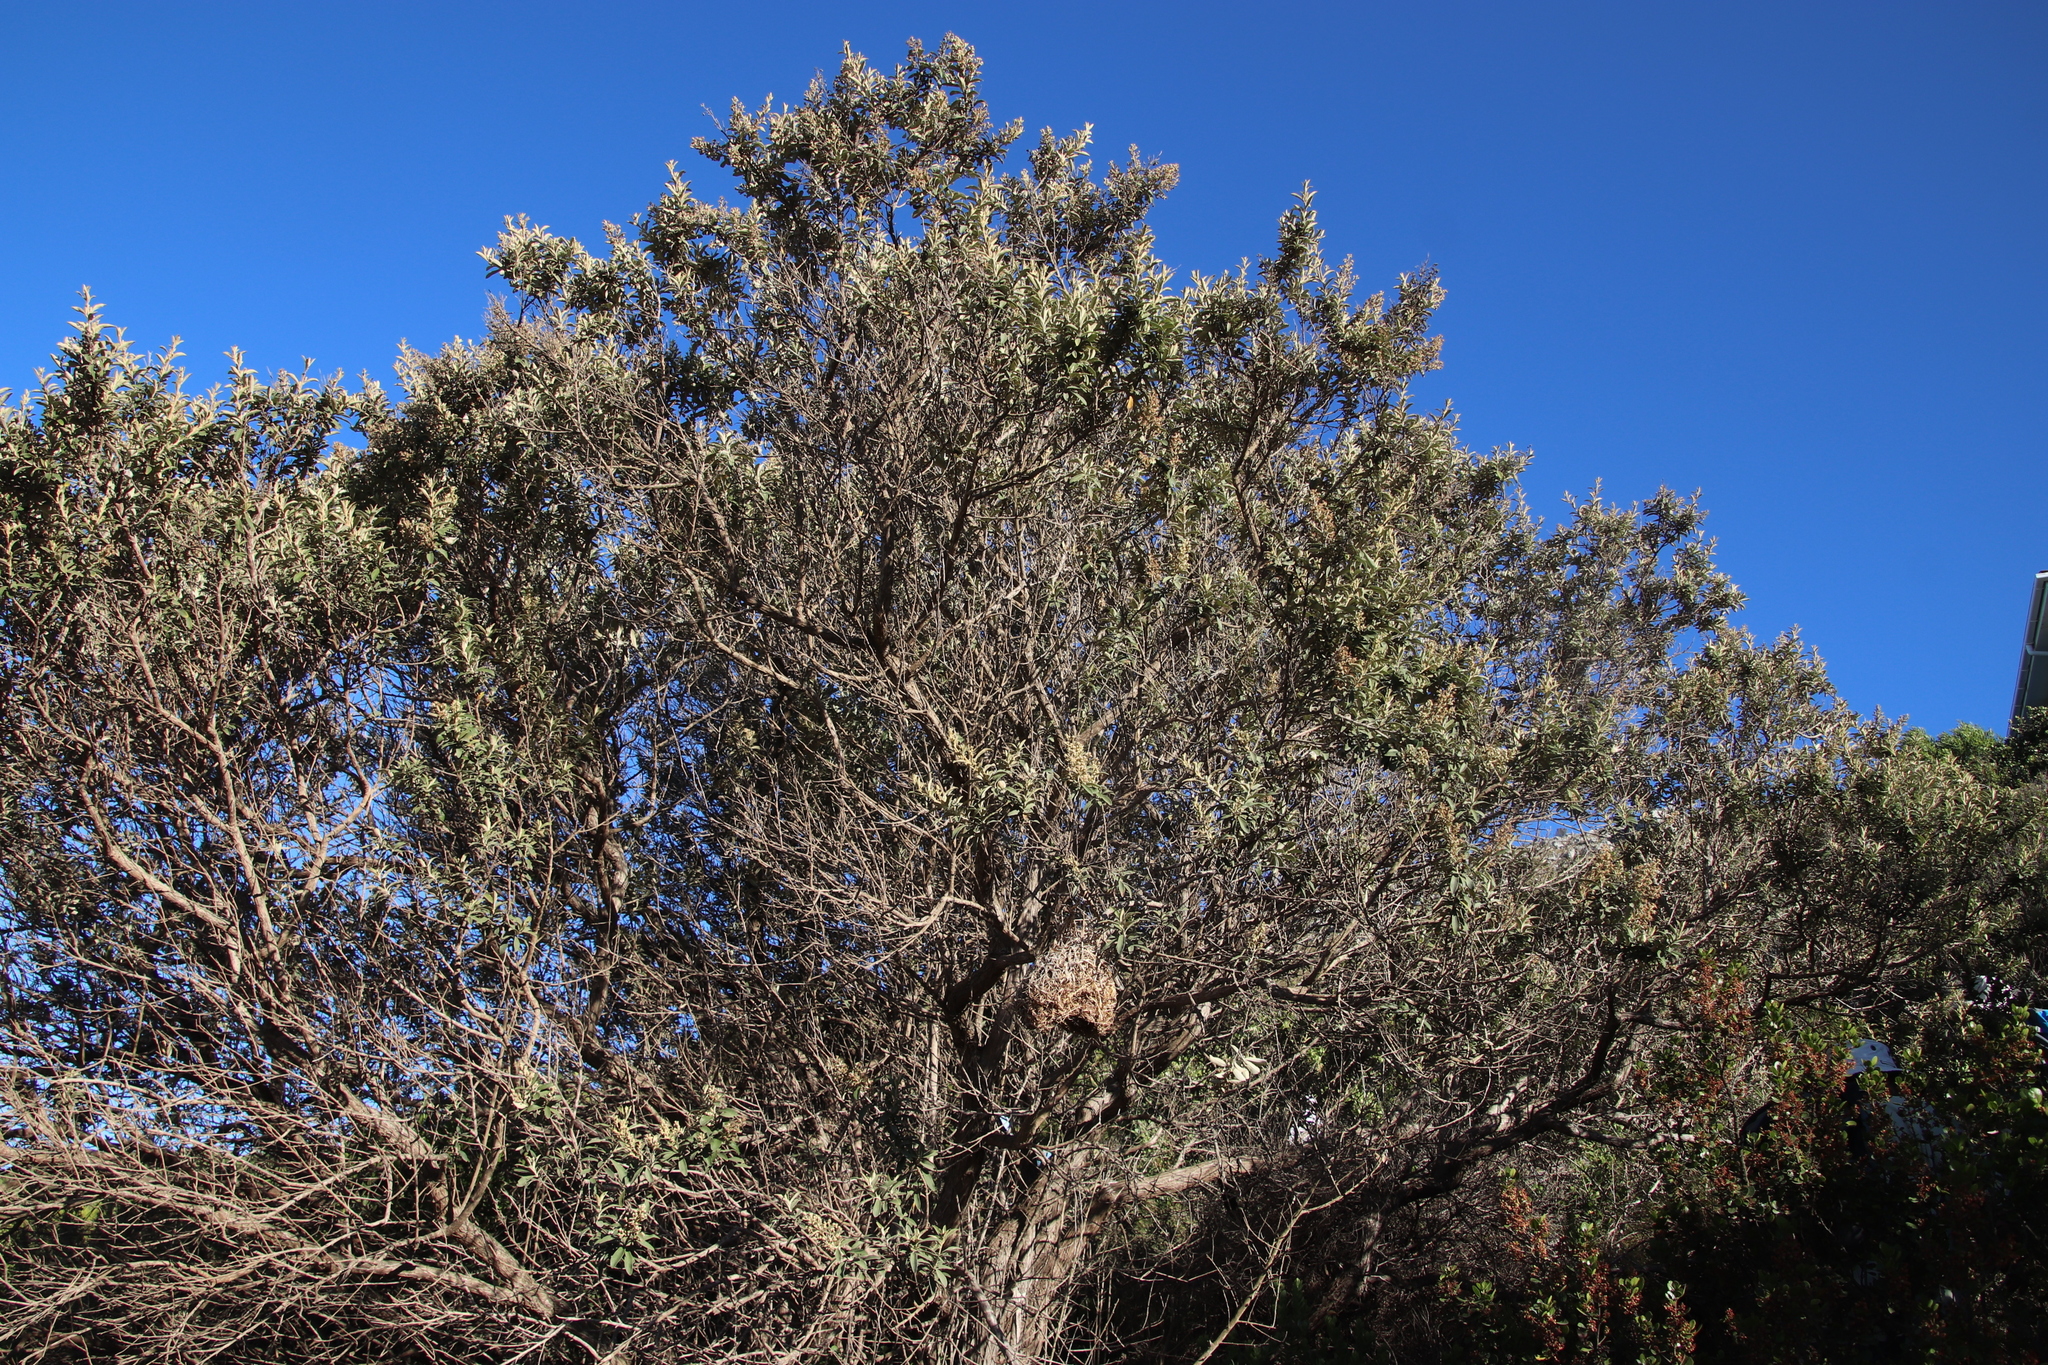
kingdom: Plantae
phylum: Tracheophyta
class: Magnoliopsida
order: Asterales
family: Asteraceae
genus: Tarchonanthus
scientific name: Tarchonanthus littoralis
